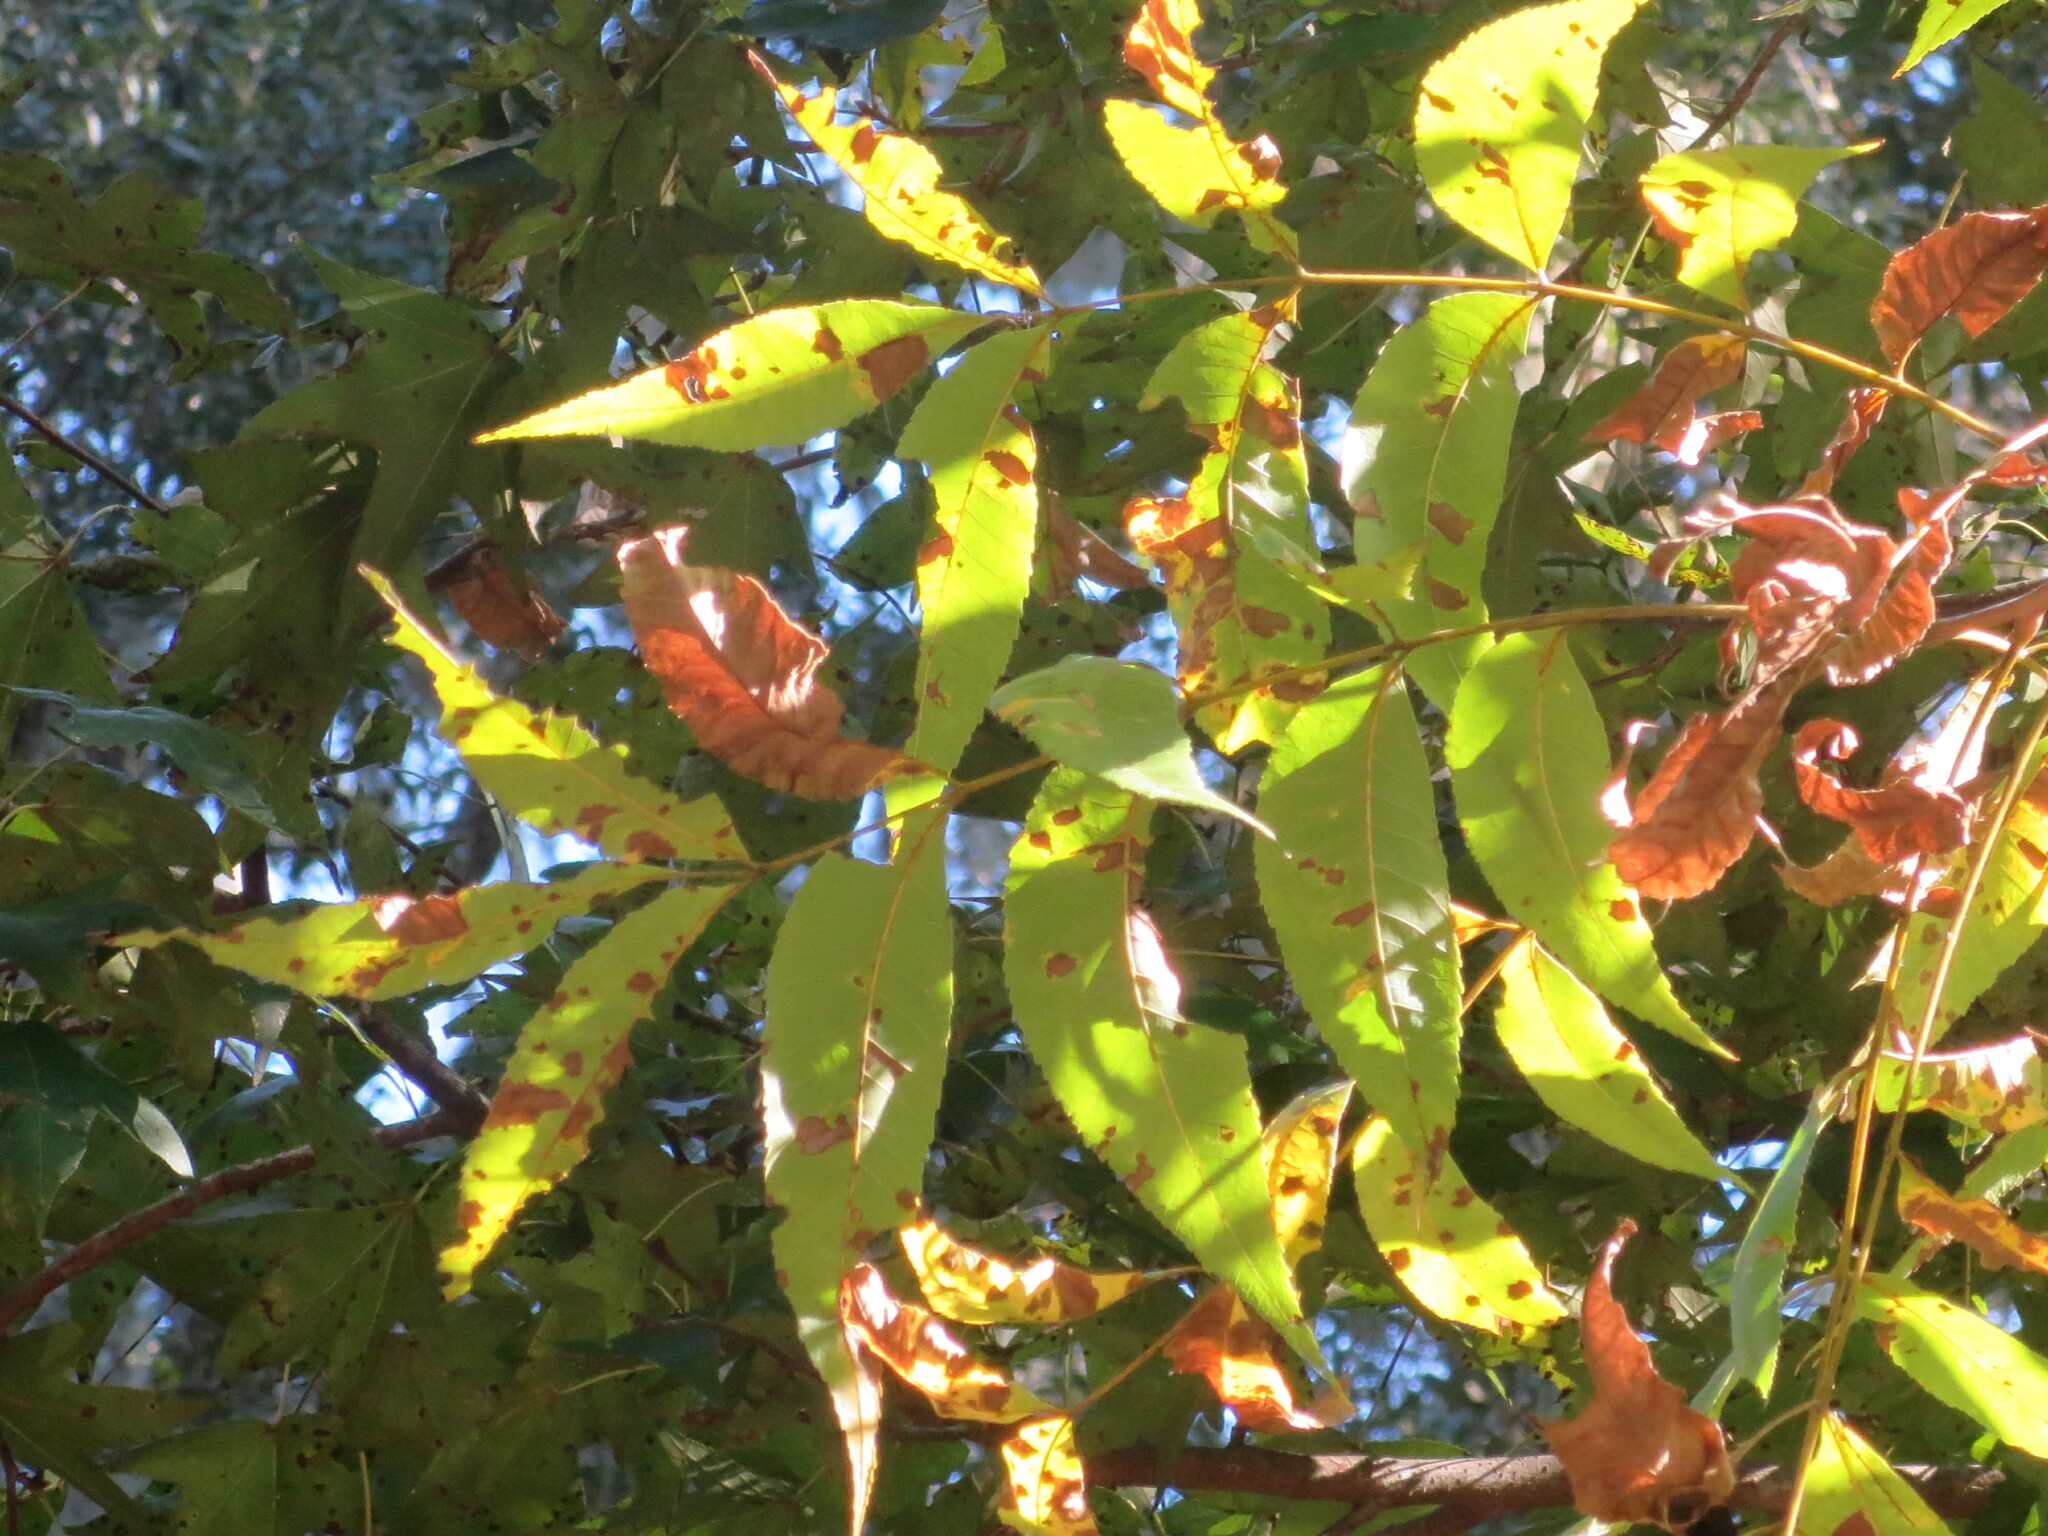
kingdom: Plantae
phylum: Tracheophyta
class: Magnoliopsida
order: Fagales
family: Juglandaceae
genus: Carya
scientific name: Carya illinoinensis
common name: Pecan
